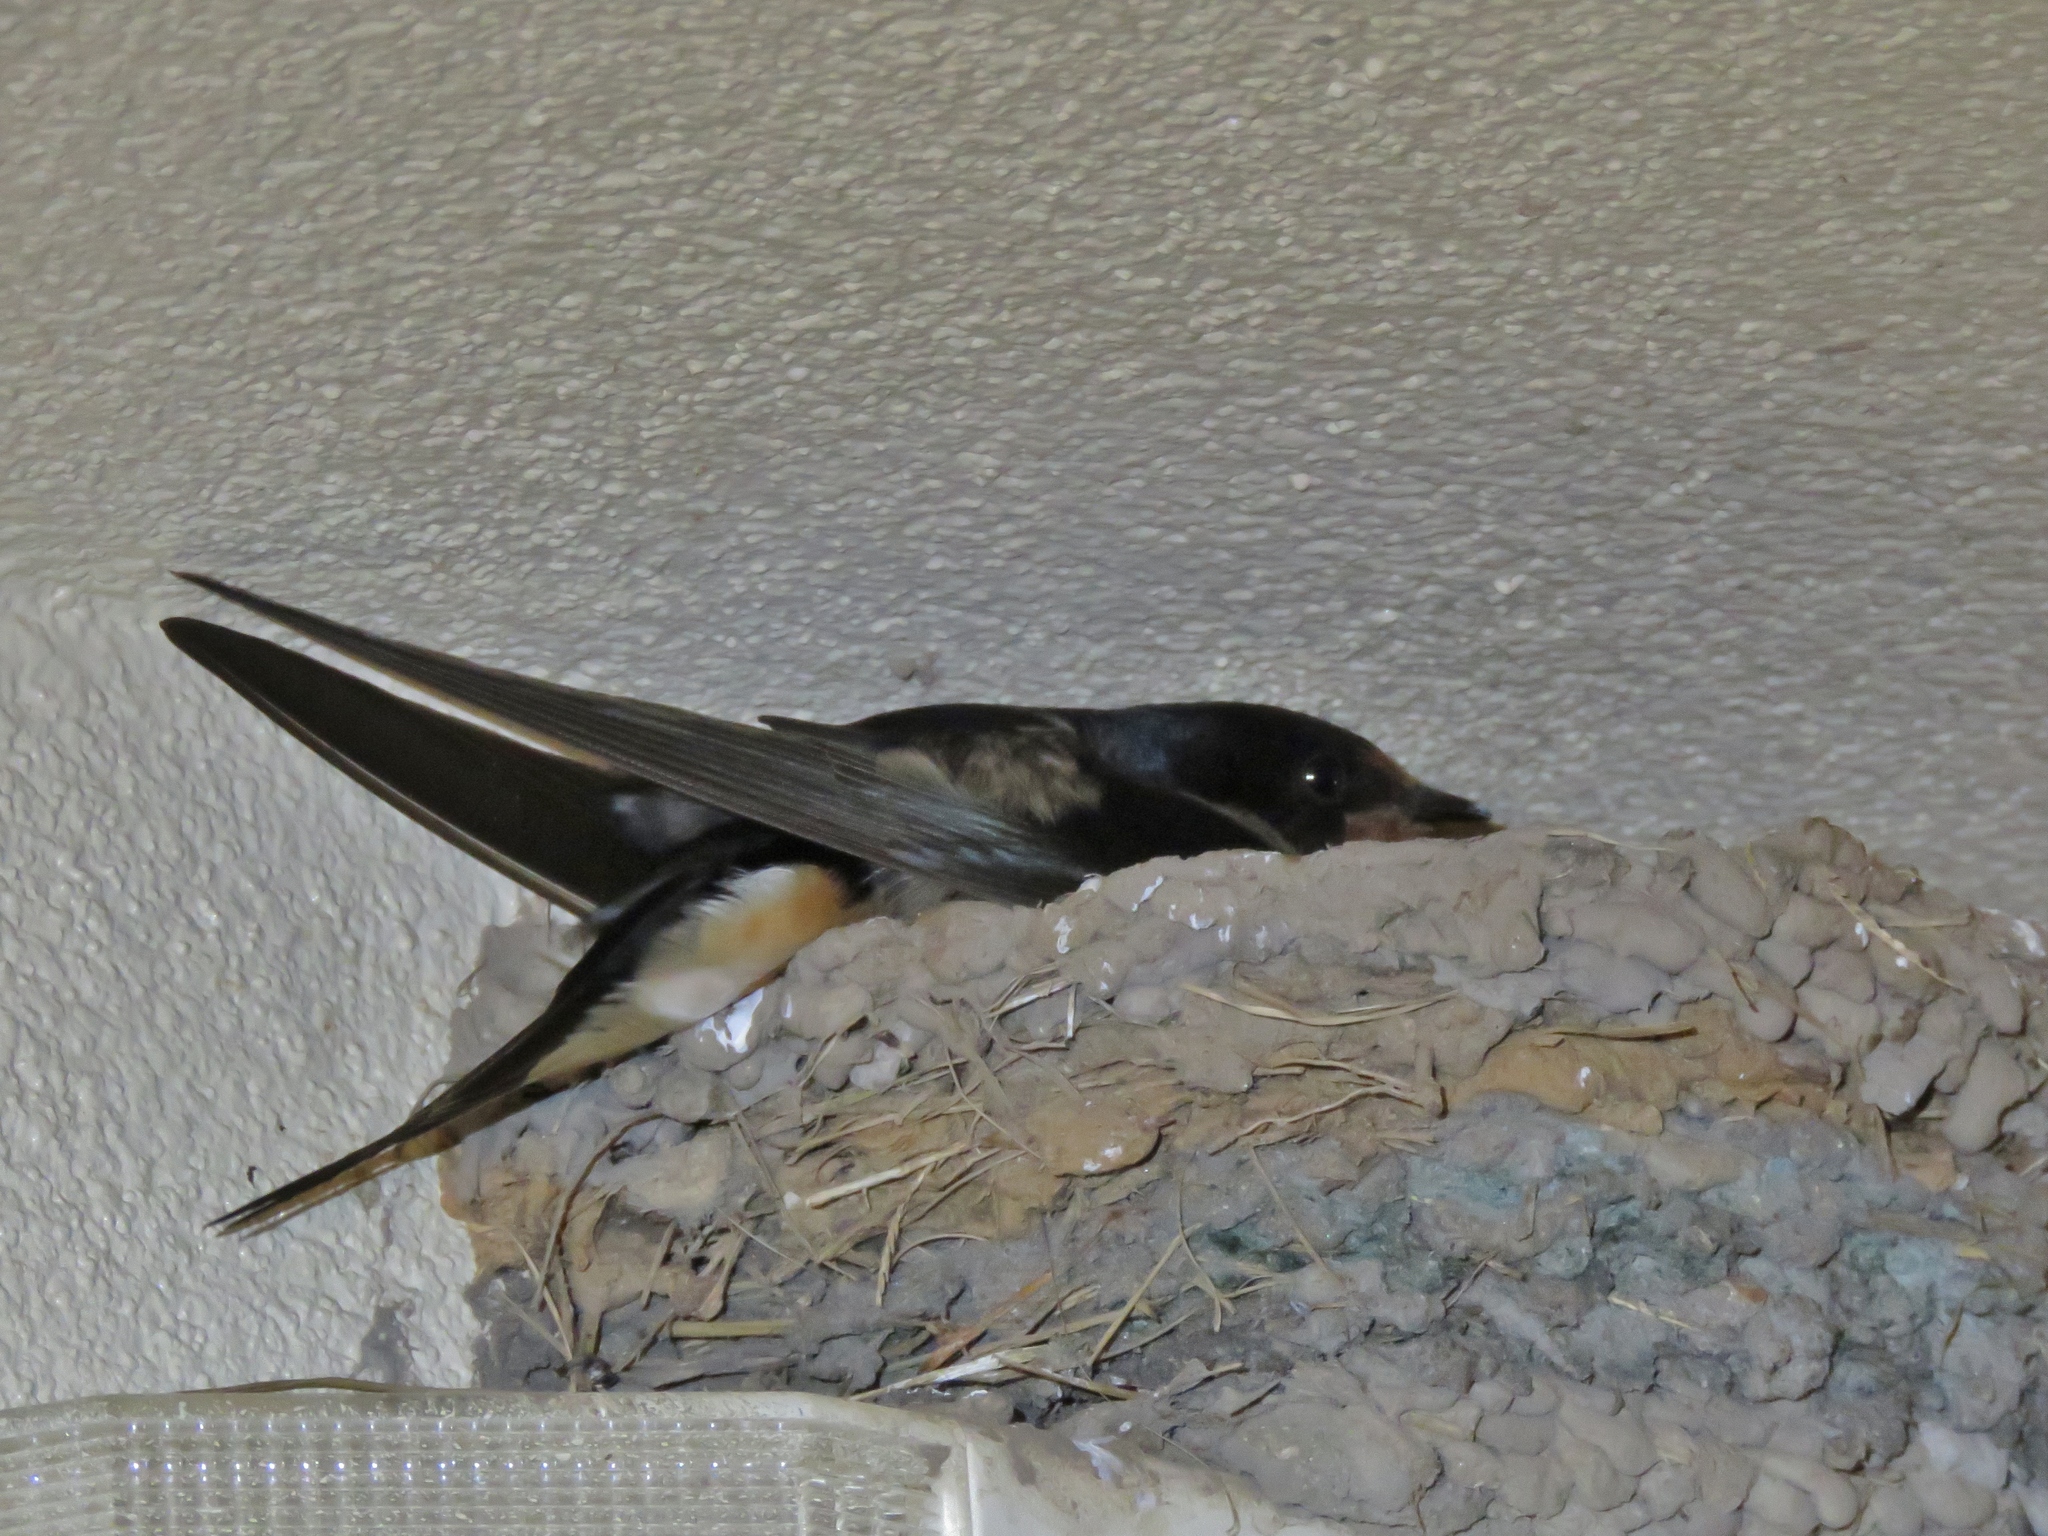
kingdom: Animalia
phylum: Chordata
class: Aves
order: Passeriformes
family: Hirundinidae
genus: Hirundo
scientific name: Hirundo rustica
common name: Barn swallow
